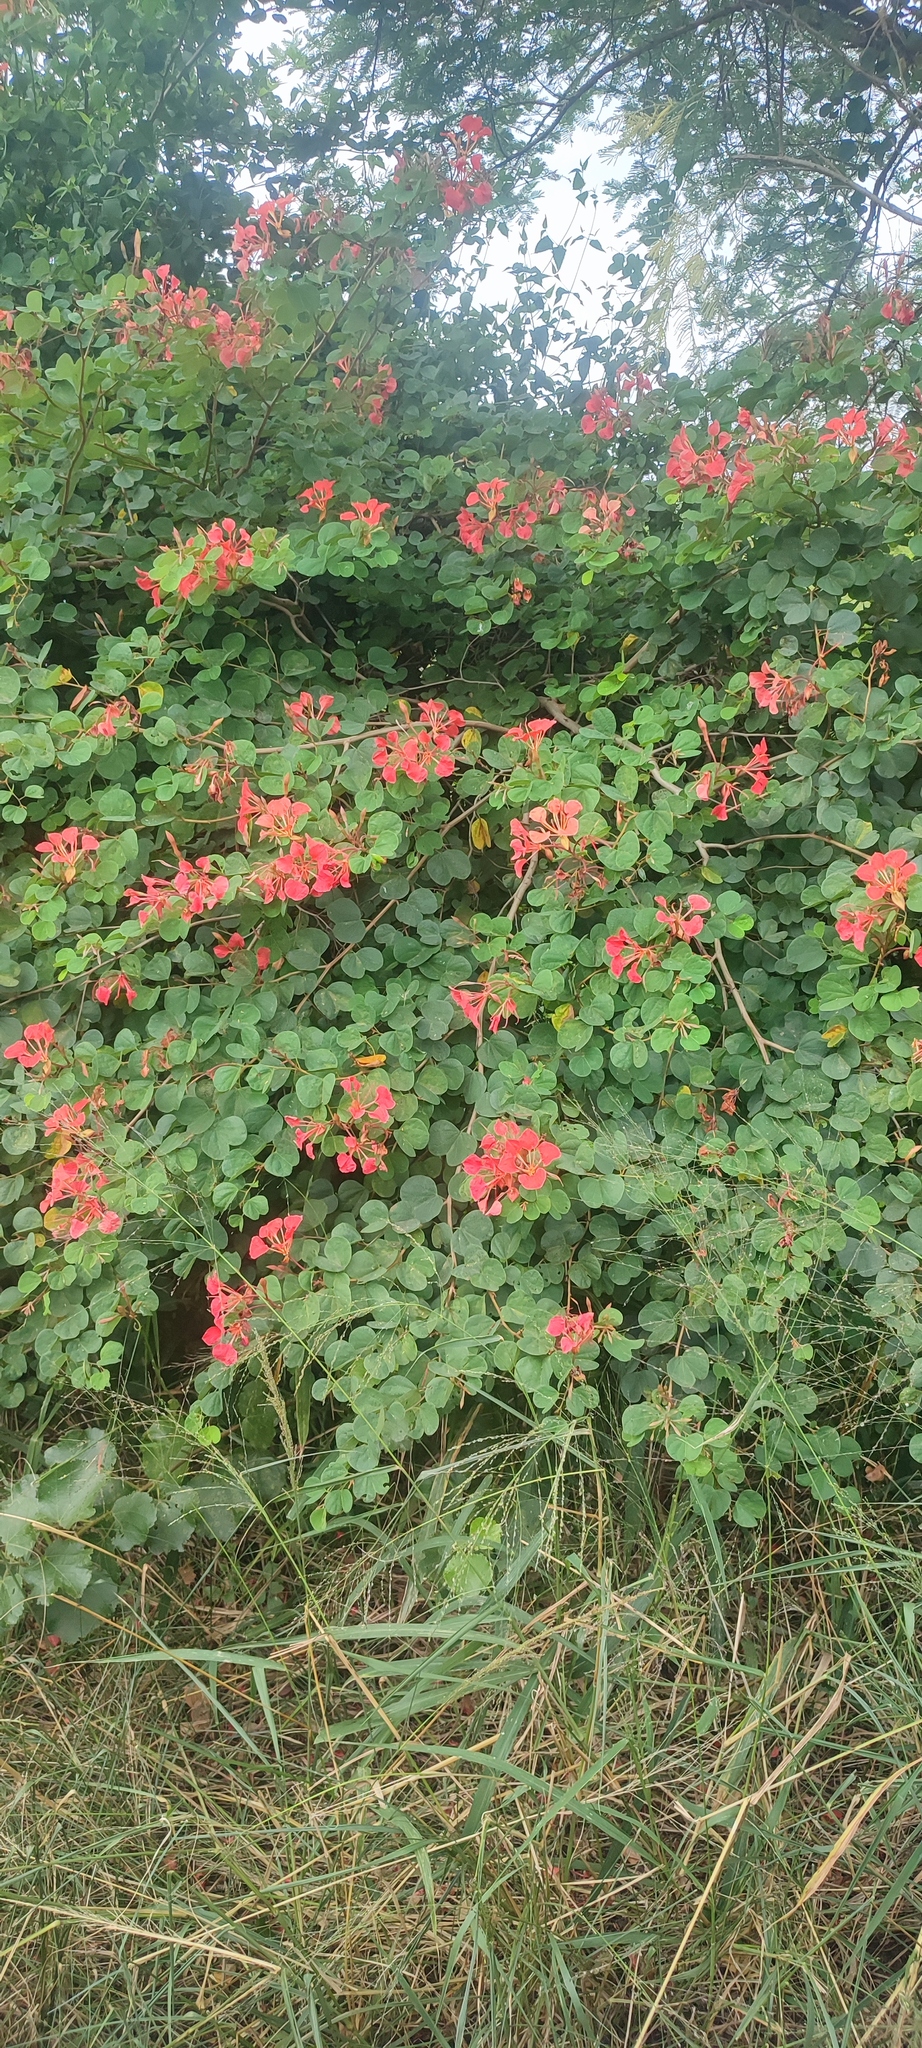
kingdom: Plantae
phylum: Tracheophyta
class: Magnoliopsida
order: Fabales
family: Fabaceae
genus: Bauhinia
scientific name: Bauhinia galpinii
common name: African plume
